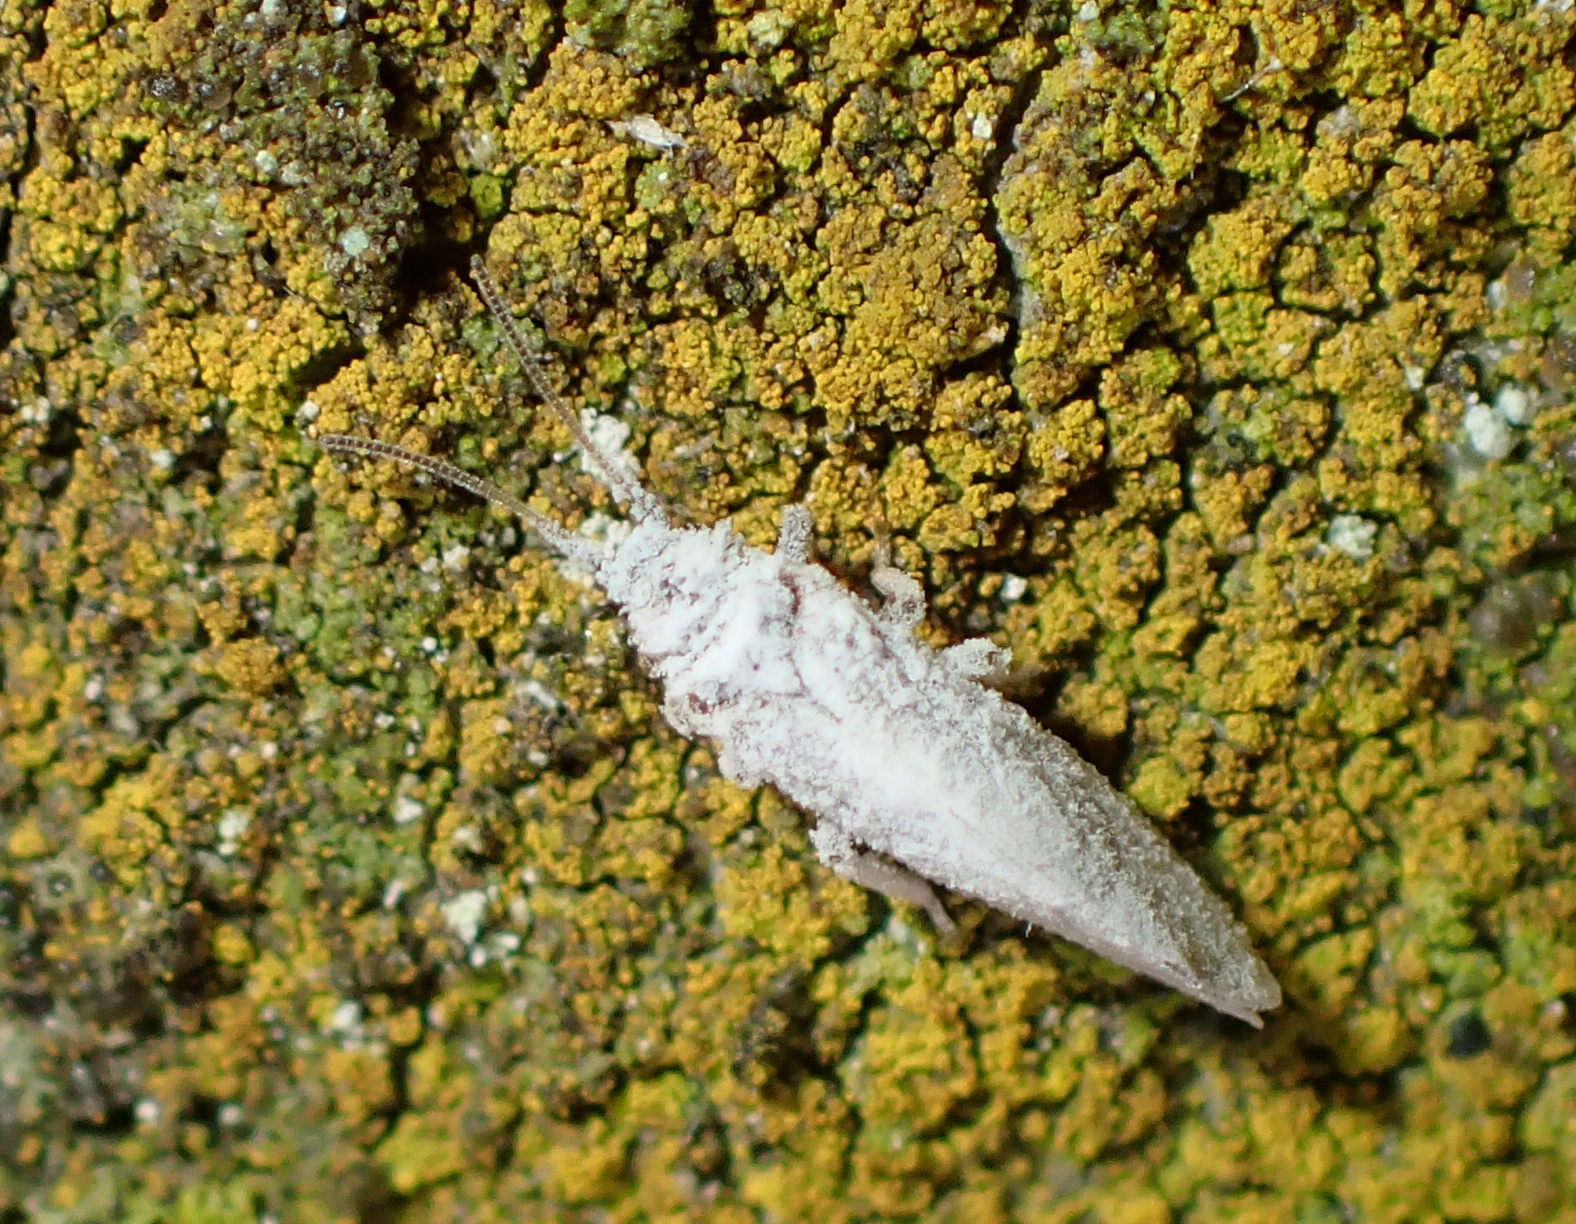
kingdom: Animalia
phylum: Arthropoda
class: Insecta
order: Neuroptera
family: Coniopterygidae
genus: Cryptoscenea
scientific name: Cryptoscenea australiensis
